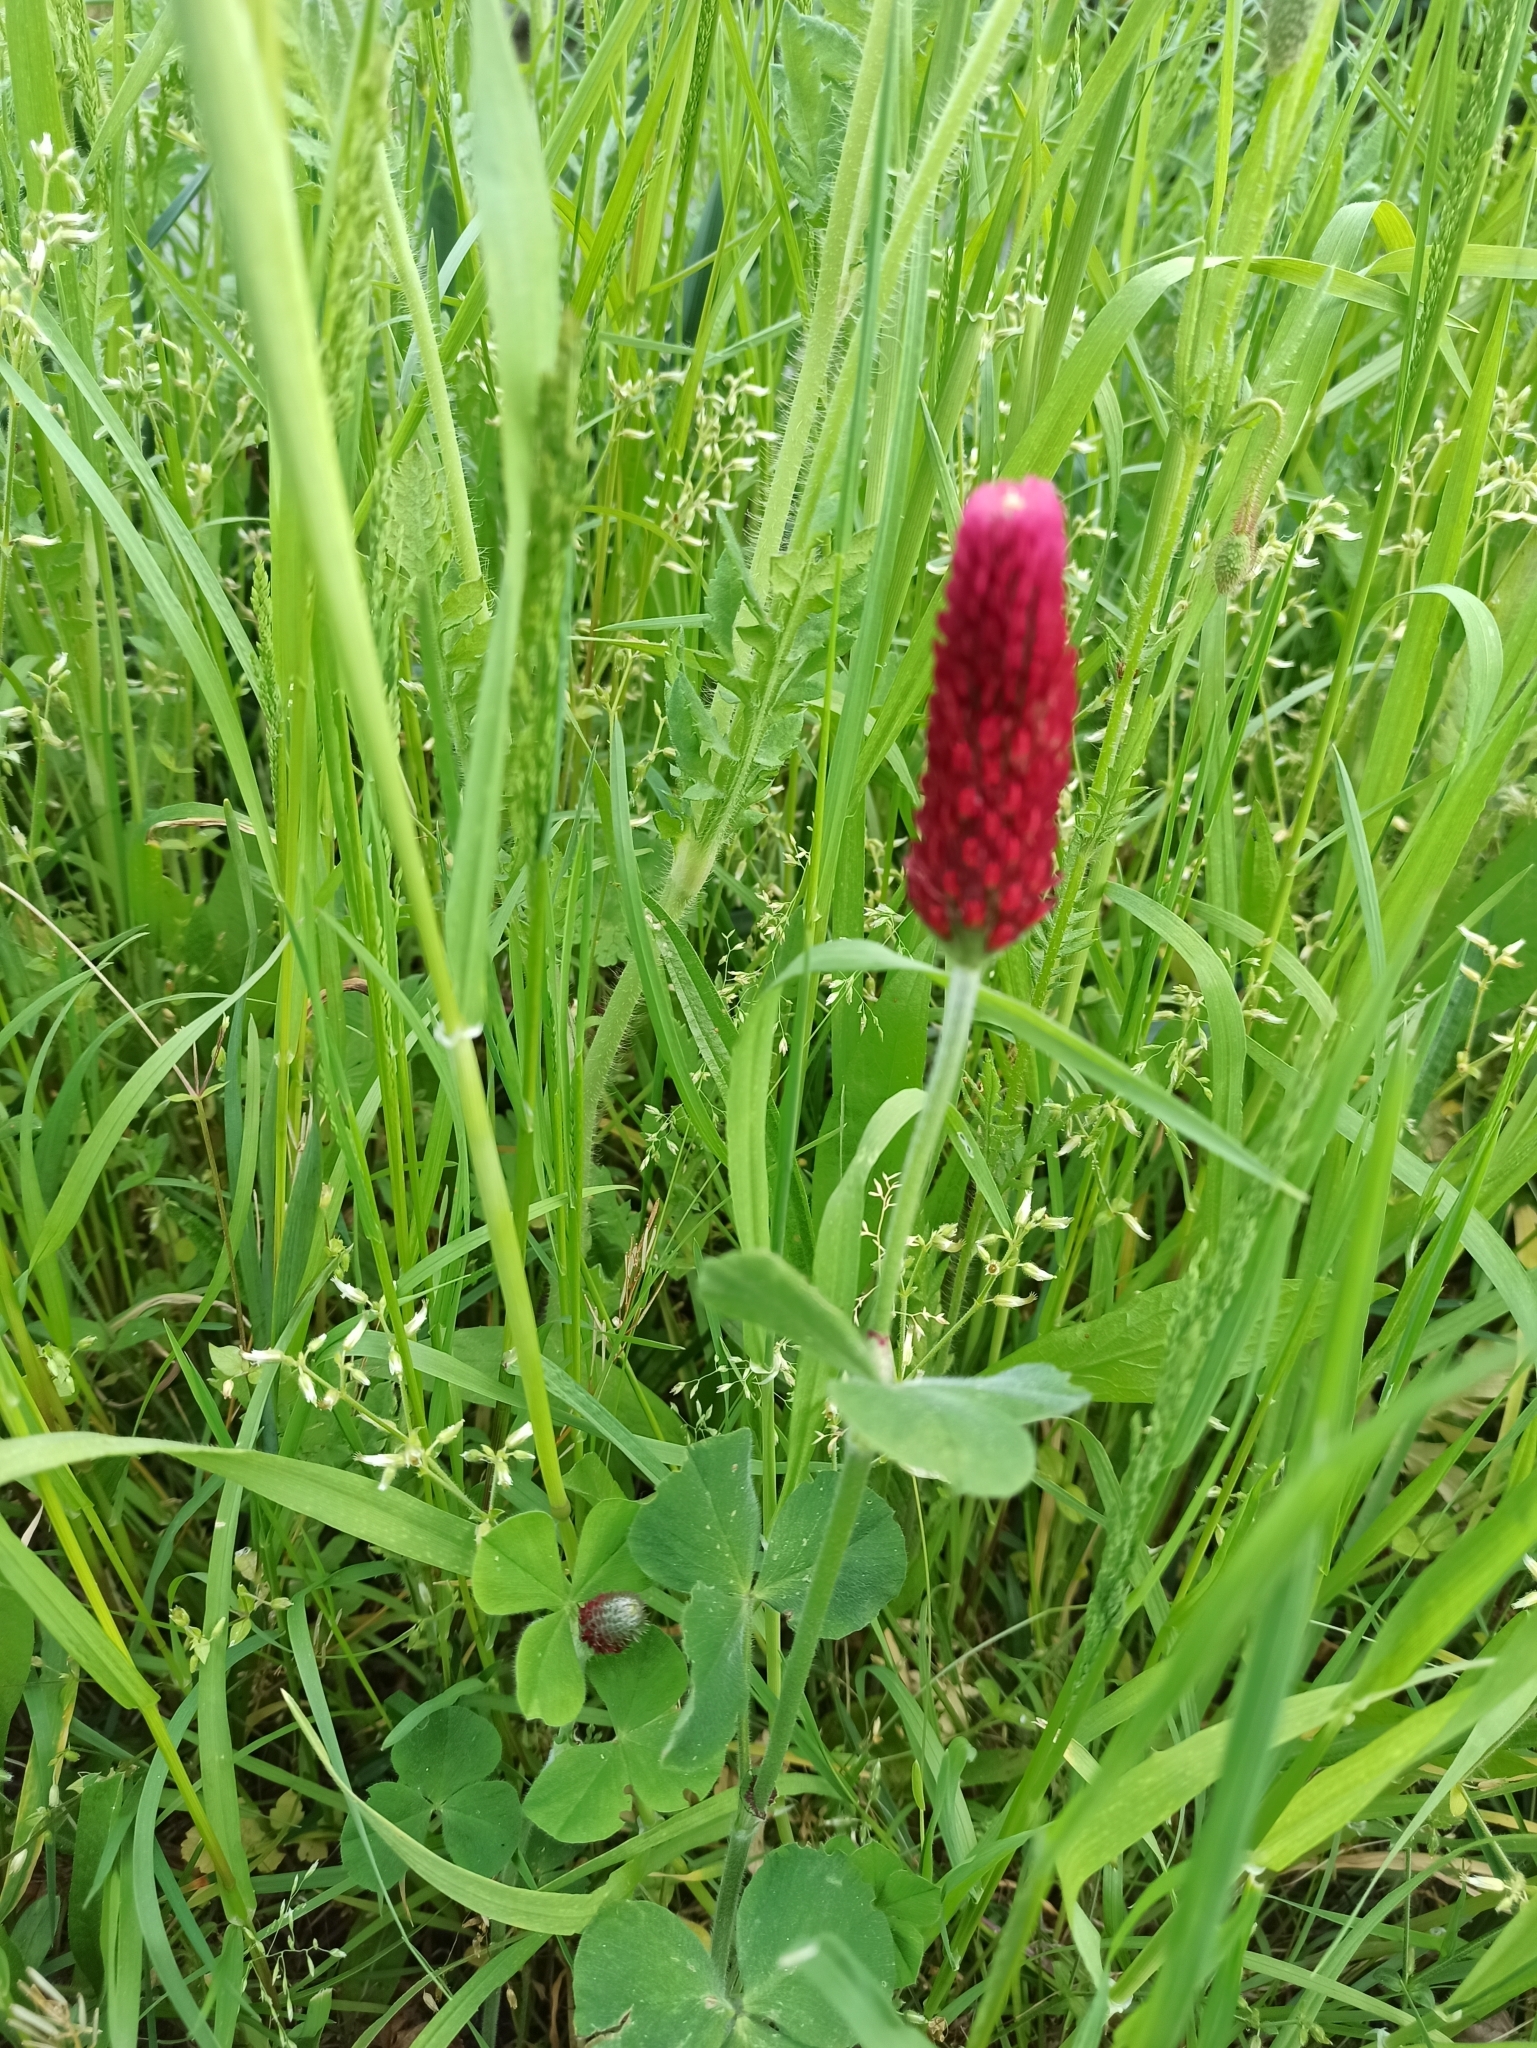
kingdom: Plantae
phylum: Tracheophyta
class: Magnoliopsida
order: Fabales
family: Fabaceae
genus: Trifolium
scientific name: Trifolium incarnatum
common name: Crimson clover
